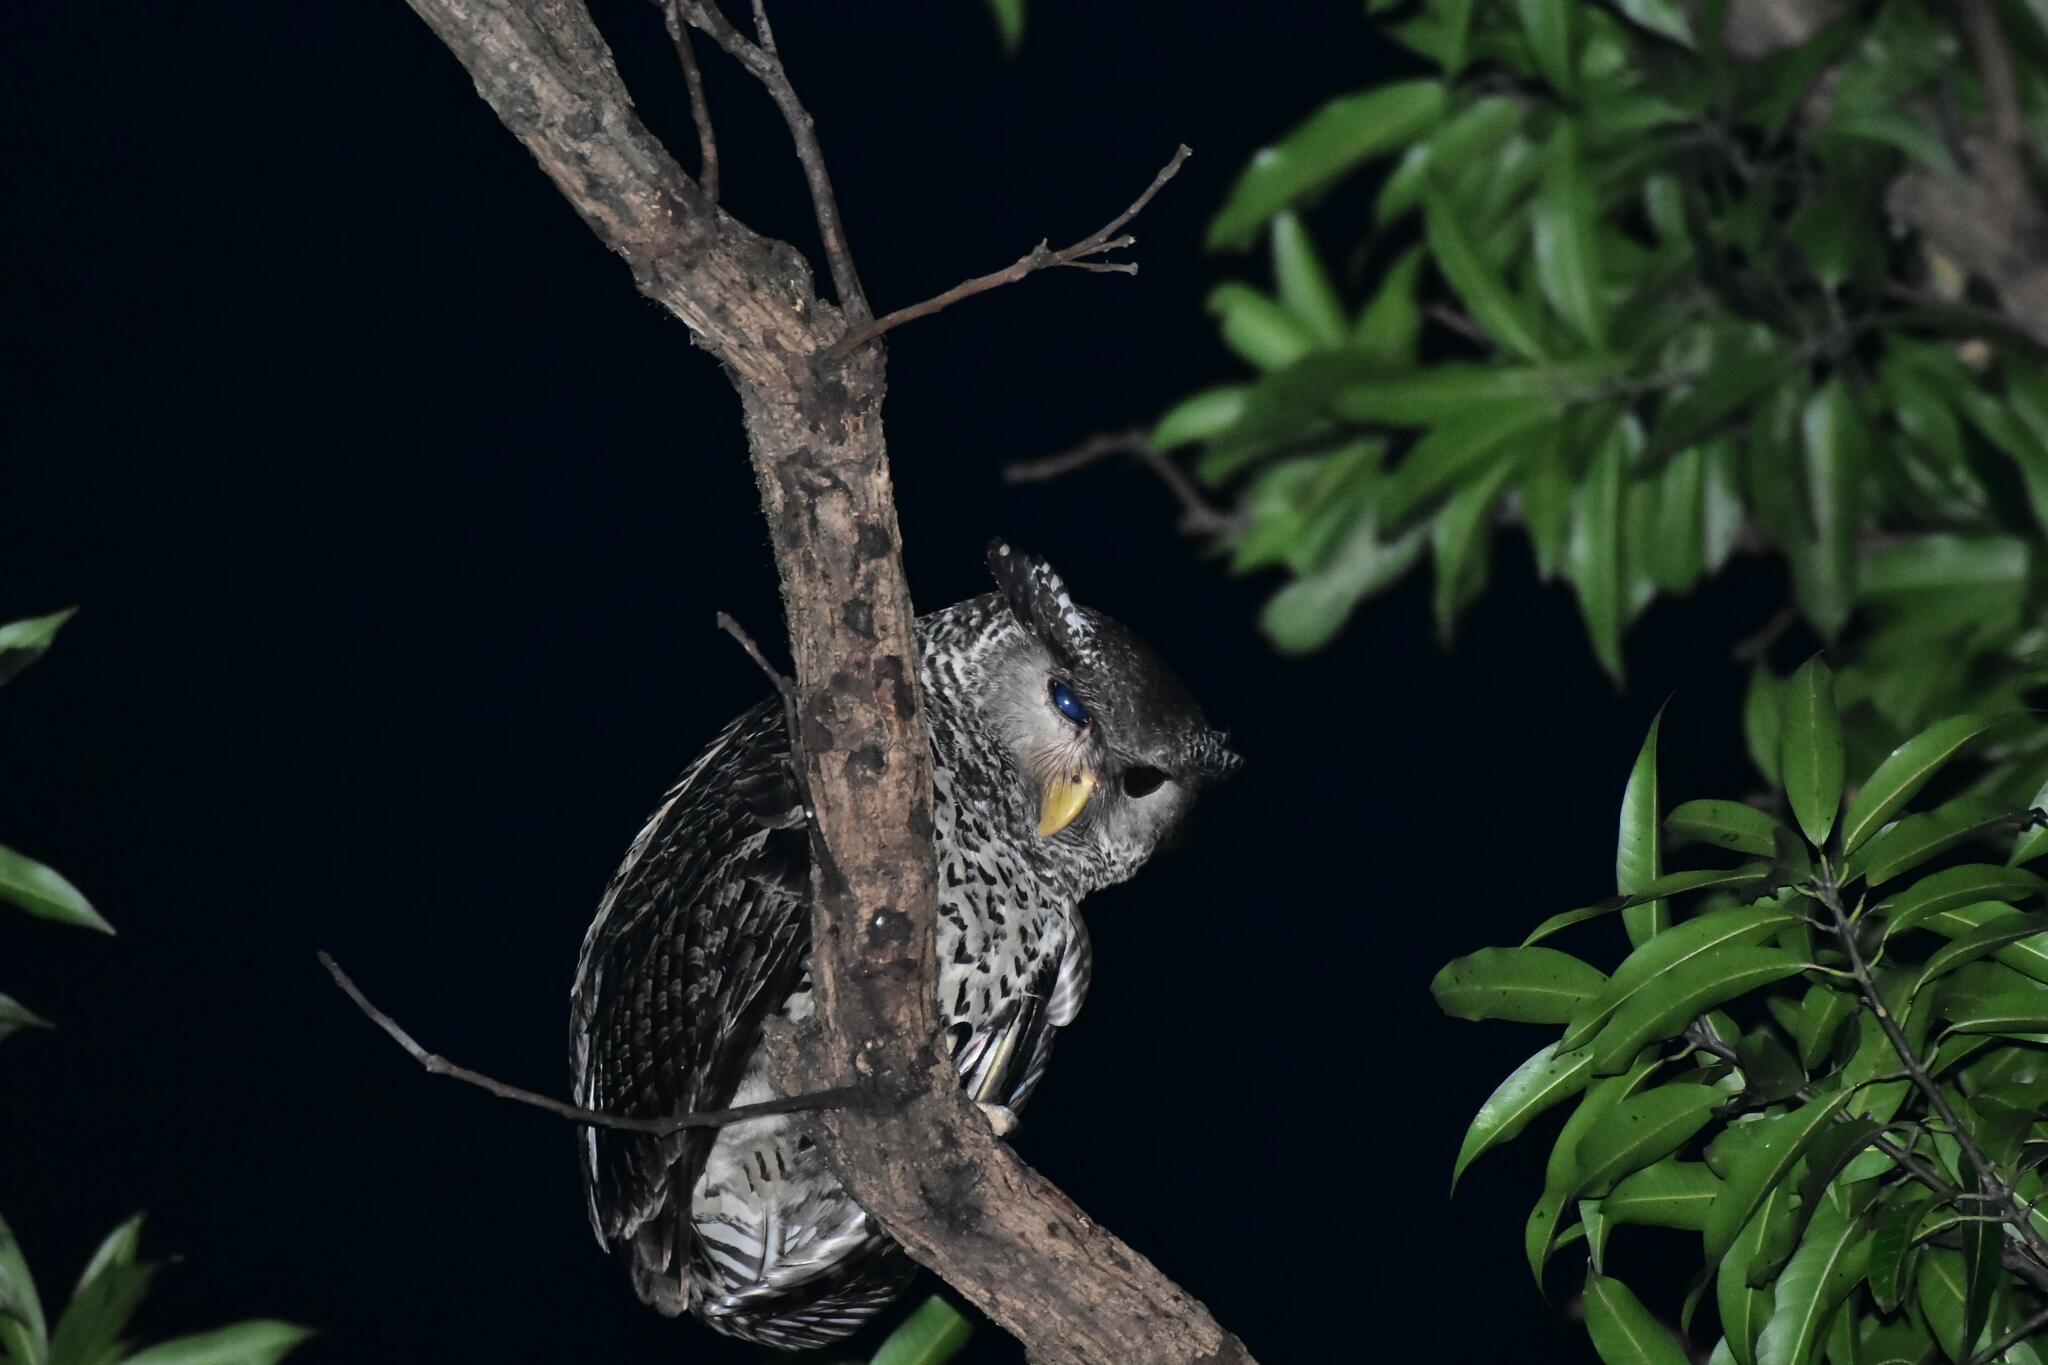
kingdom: Animalia
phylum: Chordata
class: Aves
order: Strigiformes
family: Strigidae
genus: Ketupa
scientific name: Ketupa nipalensis
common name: Spot-bellied eagle-owl
